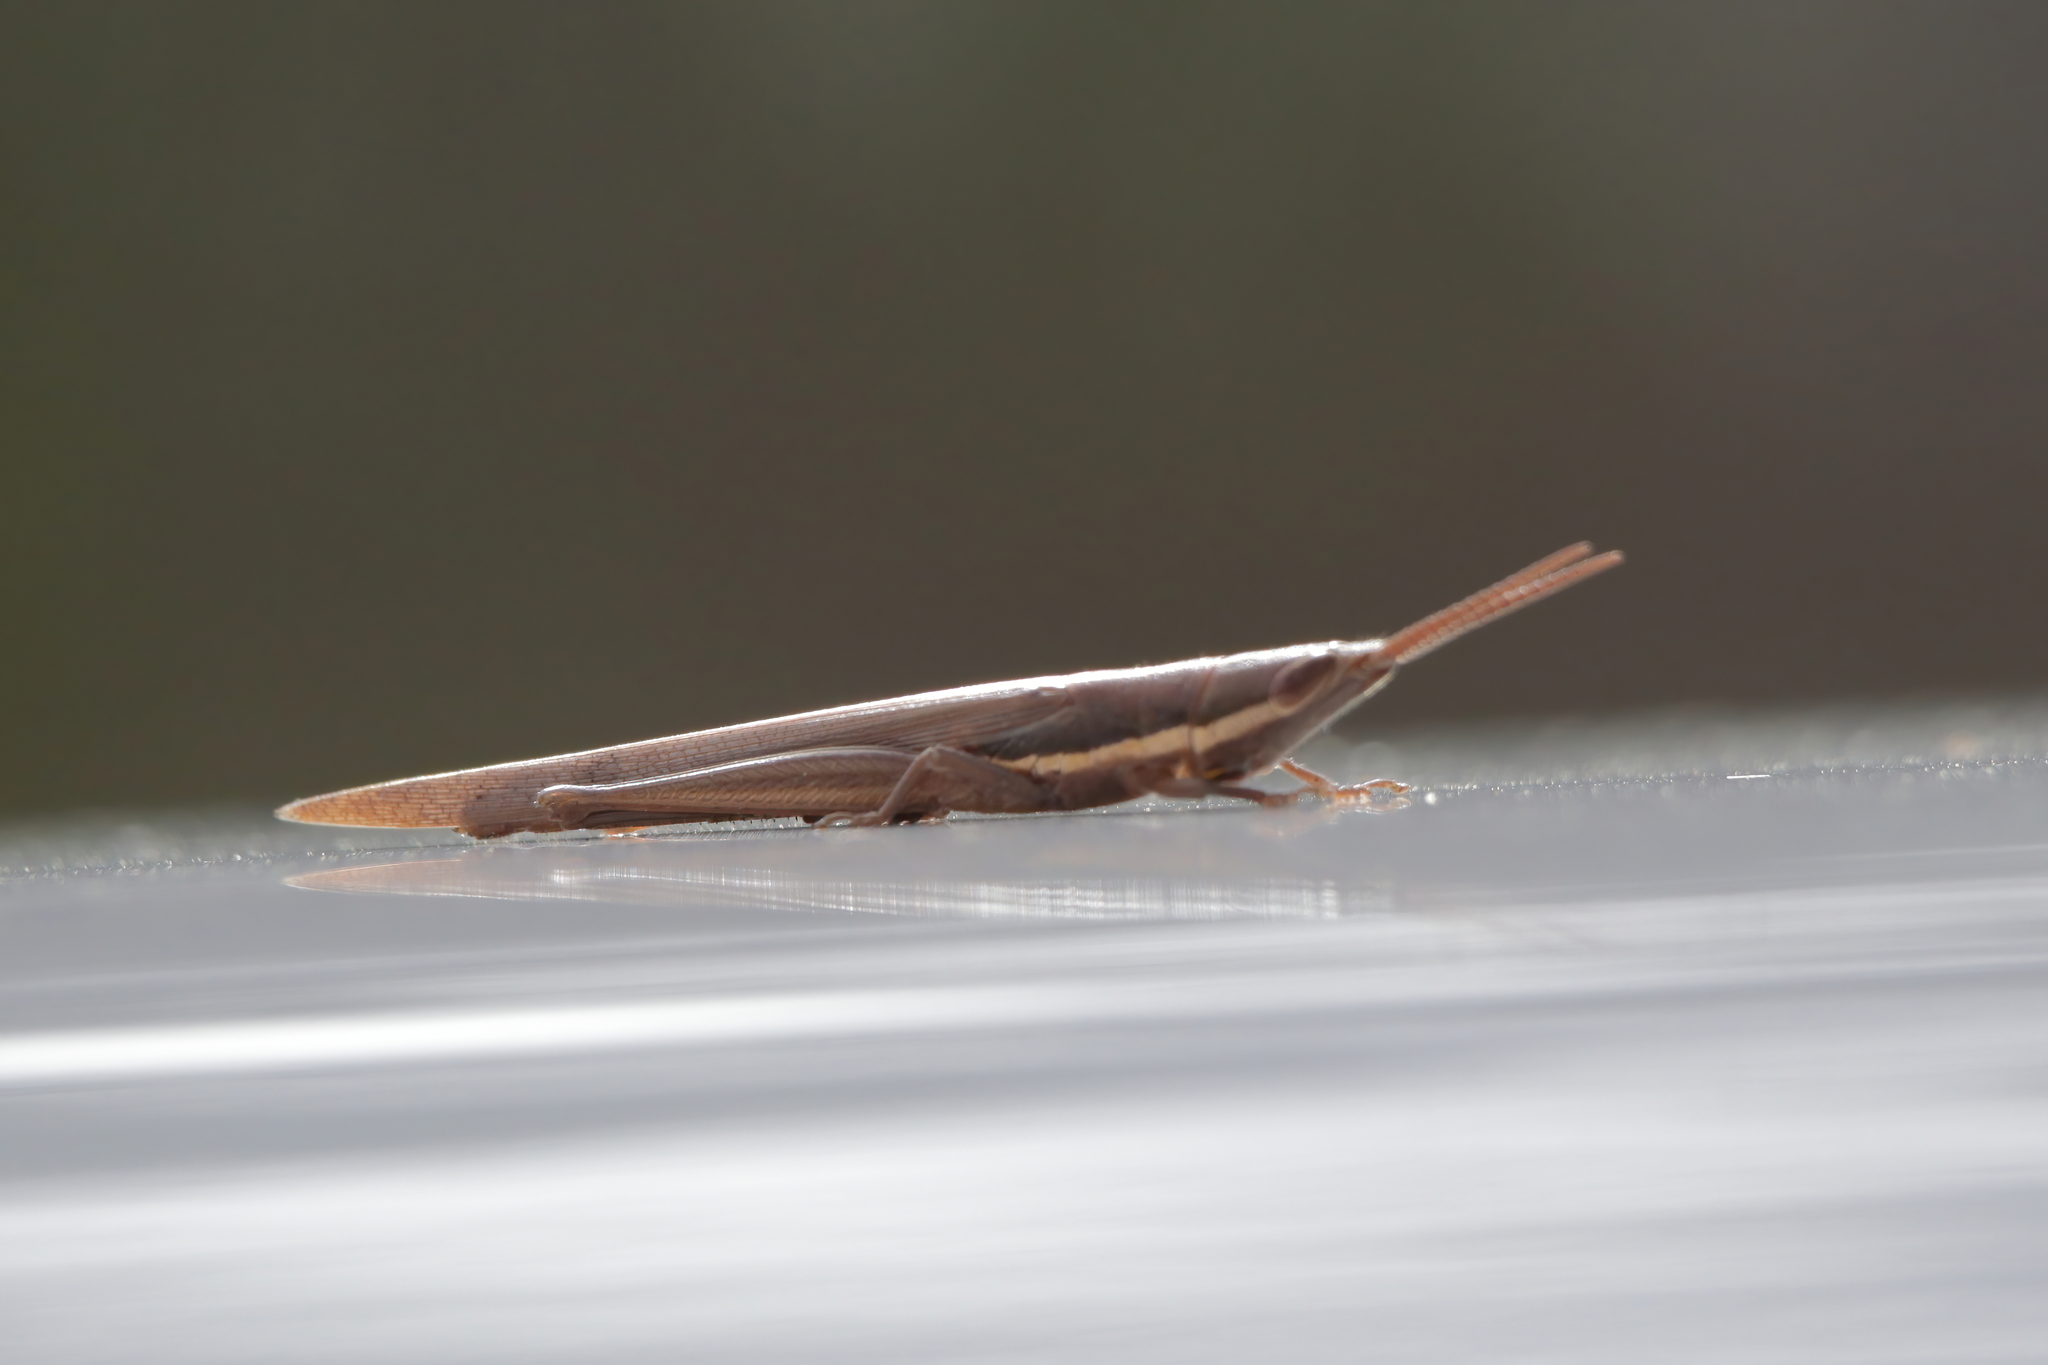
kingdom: Animalia
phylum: Arthropoda
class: Insecta
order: Orthoptera
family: Acrididae
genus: Leptysma
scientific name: Leptysma marginicollis
